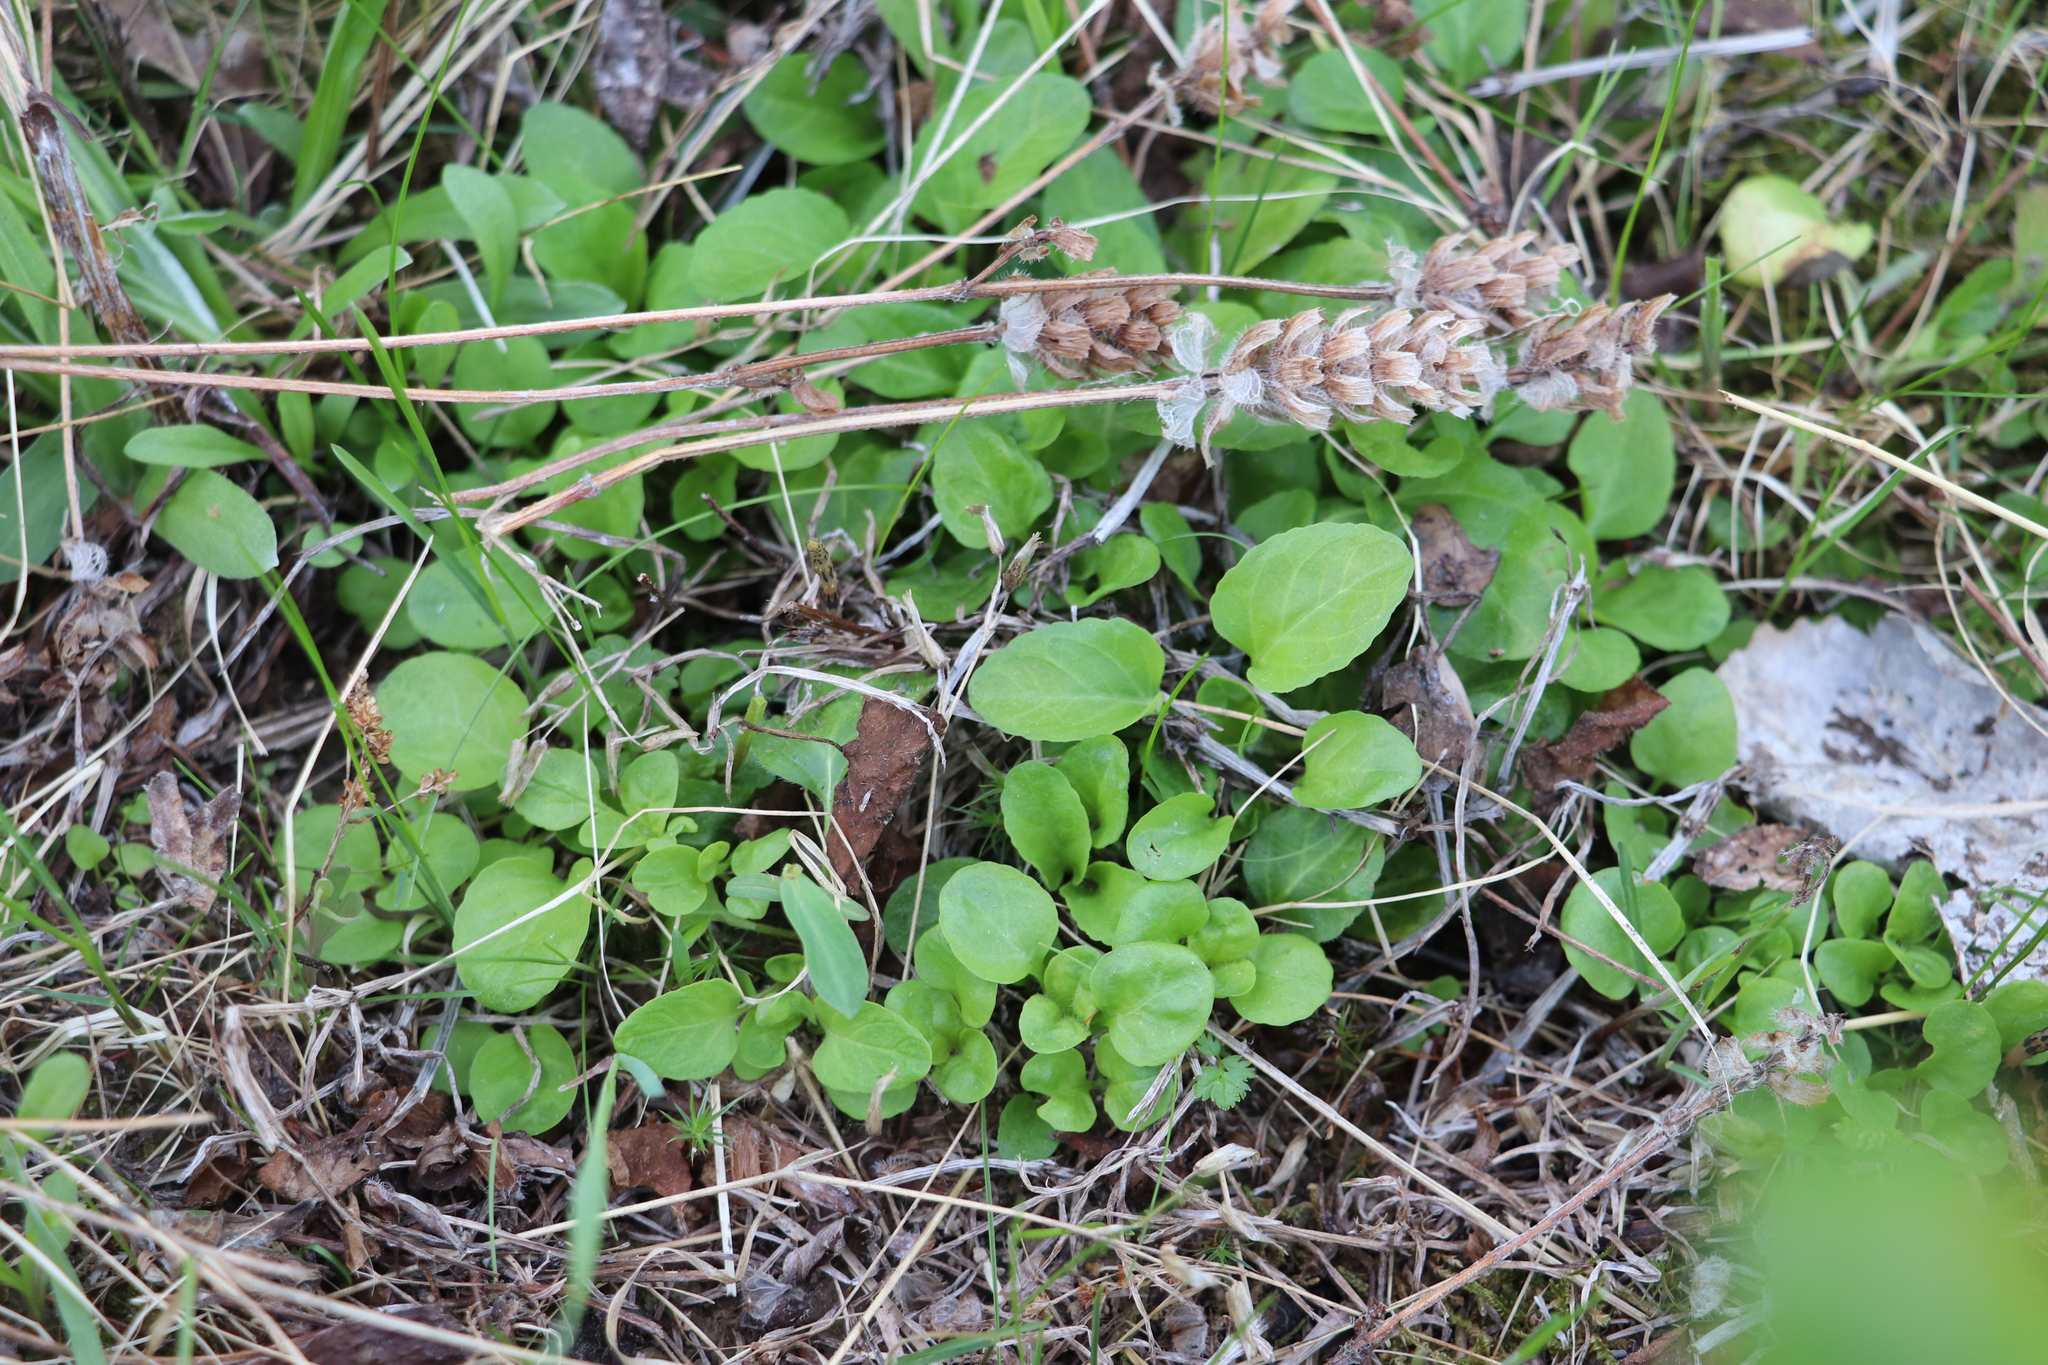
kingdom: Plantae
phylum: Tracheophyta
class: Magnoliopsida
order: Lamiales
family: Lamiaceae
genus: Prunella
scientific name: Prunella vulgaris
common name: Heal-all
